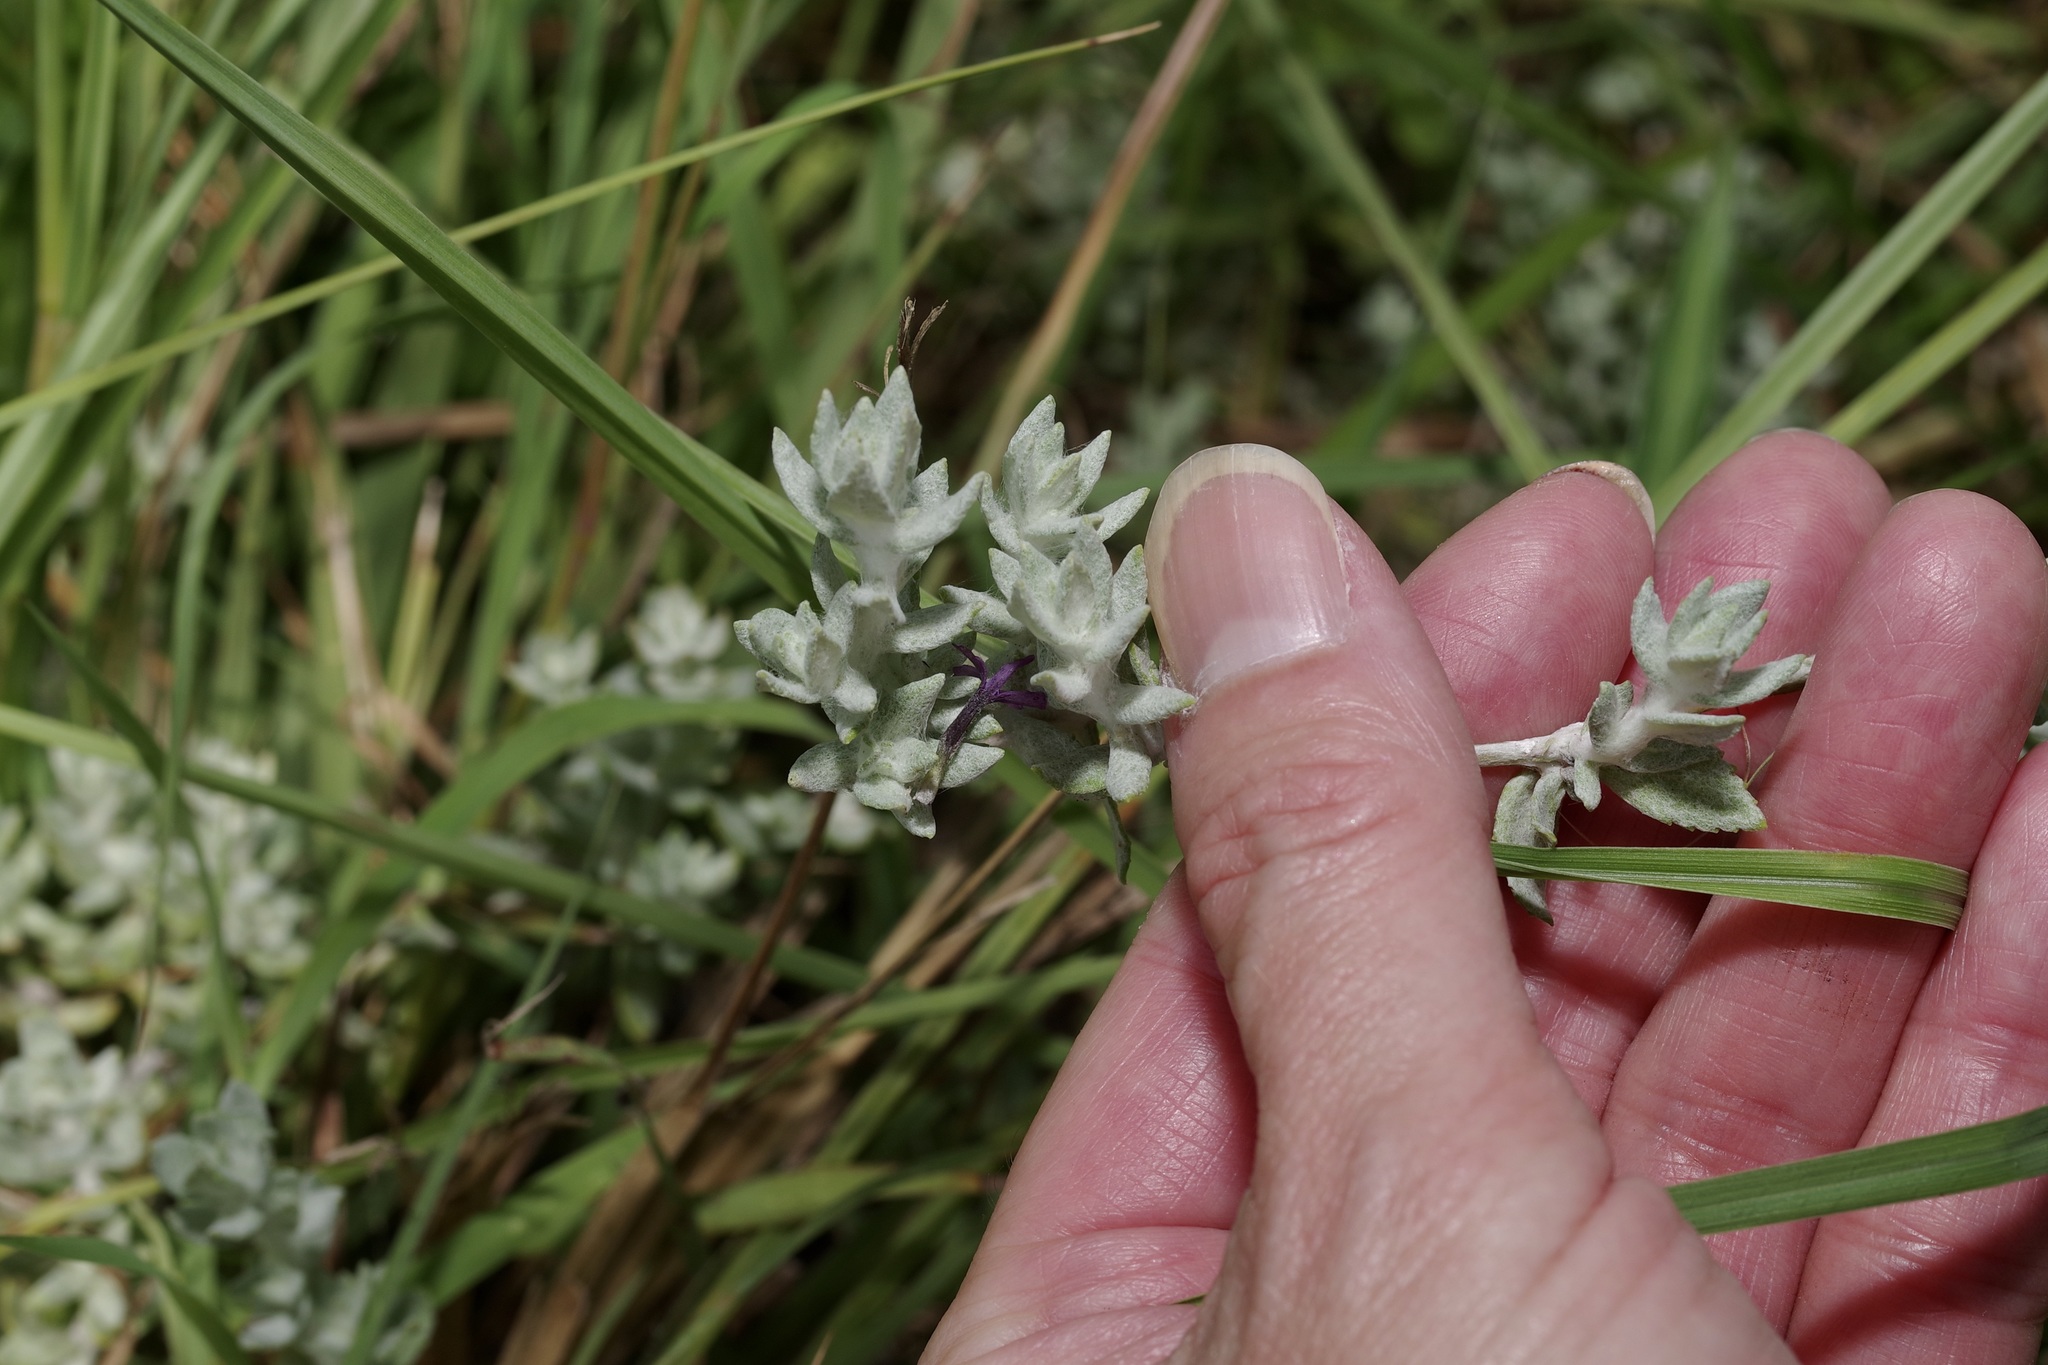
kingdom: Plantae
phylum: Tracheophyta
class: Magnoliopsida
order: Lamiales
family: Plantaginaceae
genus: Stemodia
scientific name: Stemodia lanata
